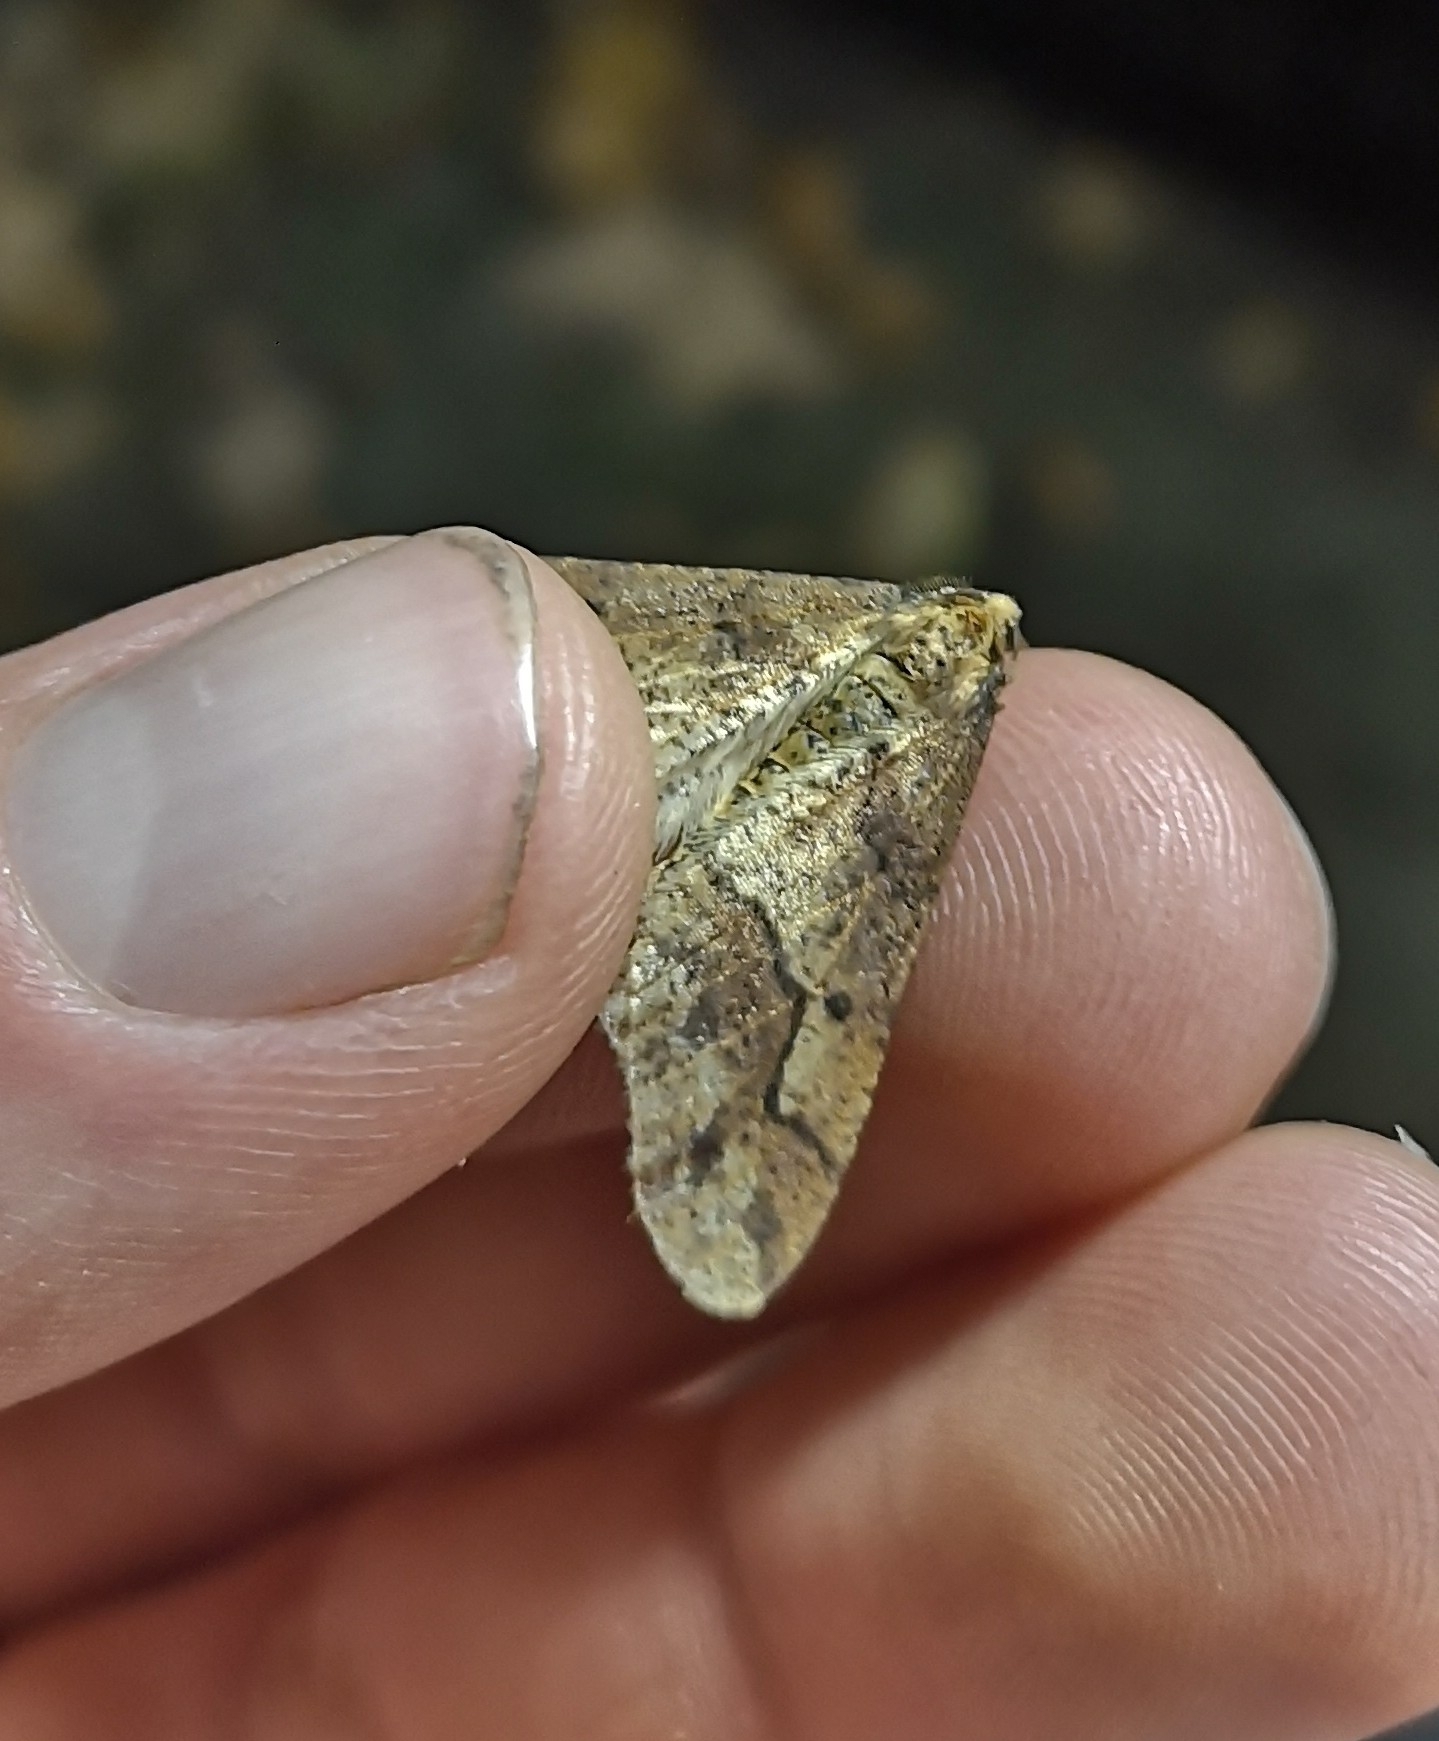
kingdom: Animalia
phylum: Arthropoda
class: Insecta
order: Lepidoptera
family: Geometridae
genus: Erannis
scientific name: Erannis defoliaria
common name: Mottled umber
